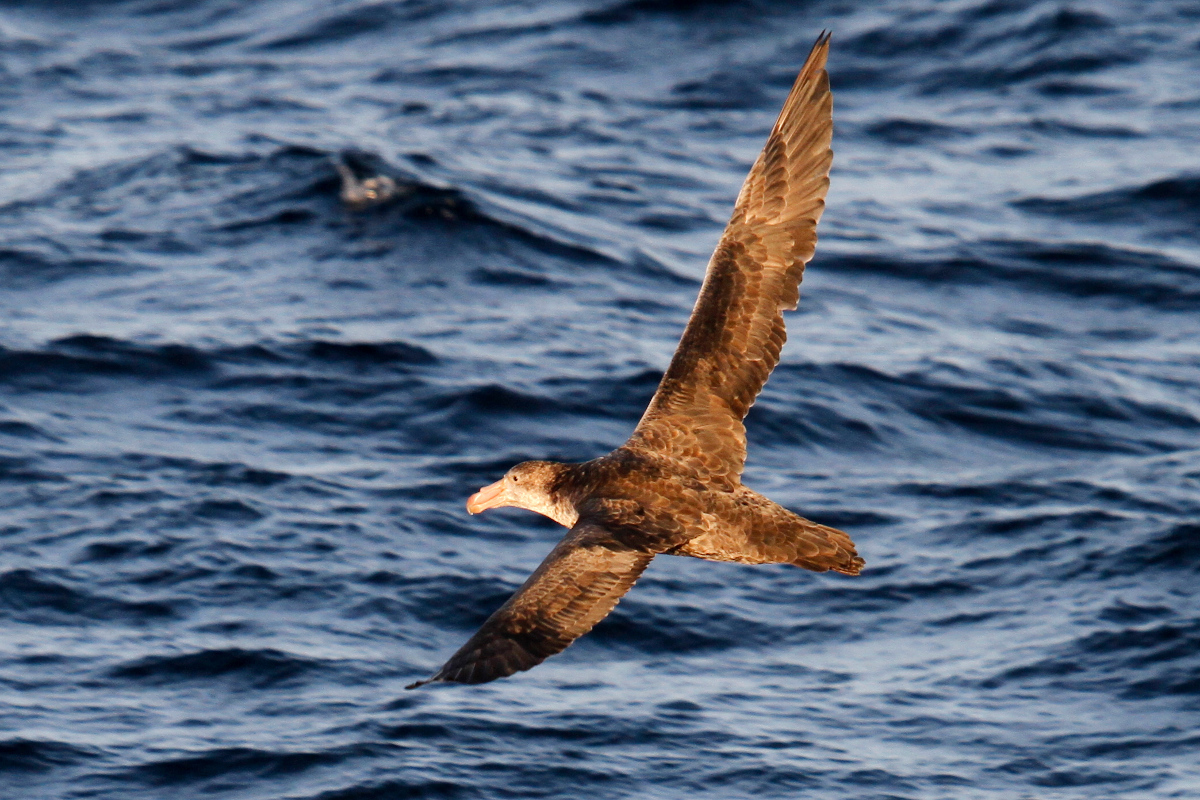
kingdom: Animalia
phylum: Chordata
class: Aves
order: Procellariiformes
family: Procellariidae
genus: Macronectes
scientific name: Macronectes halli
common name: Northern giant petrel
